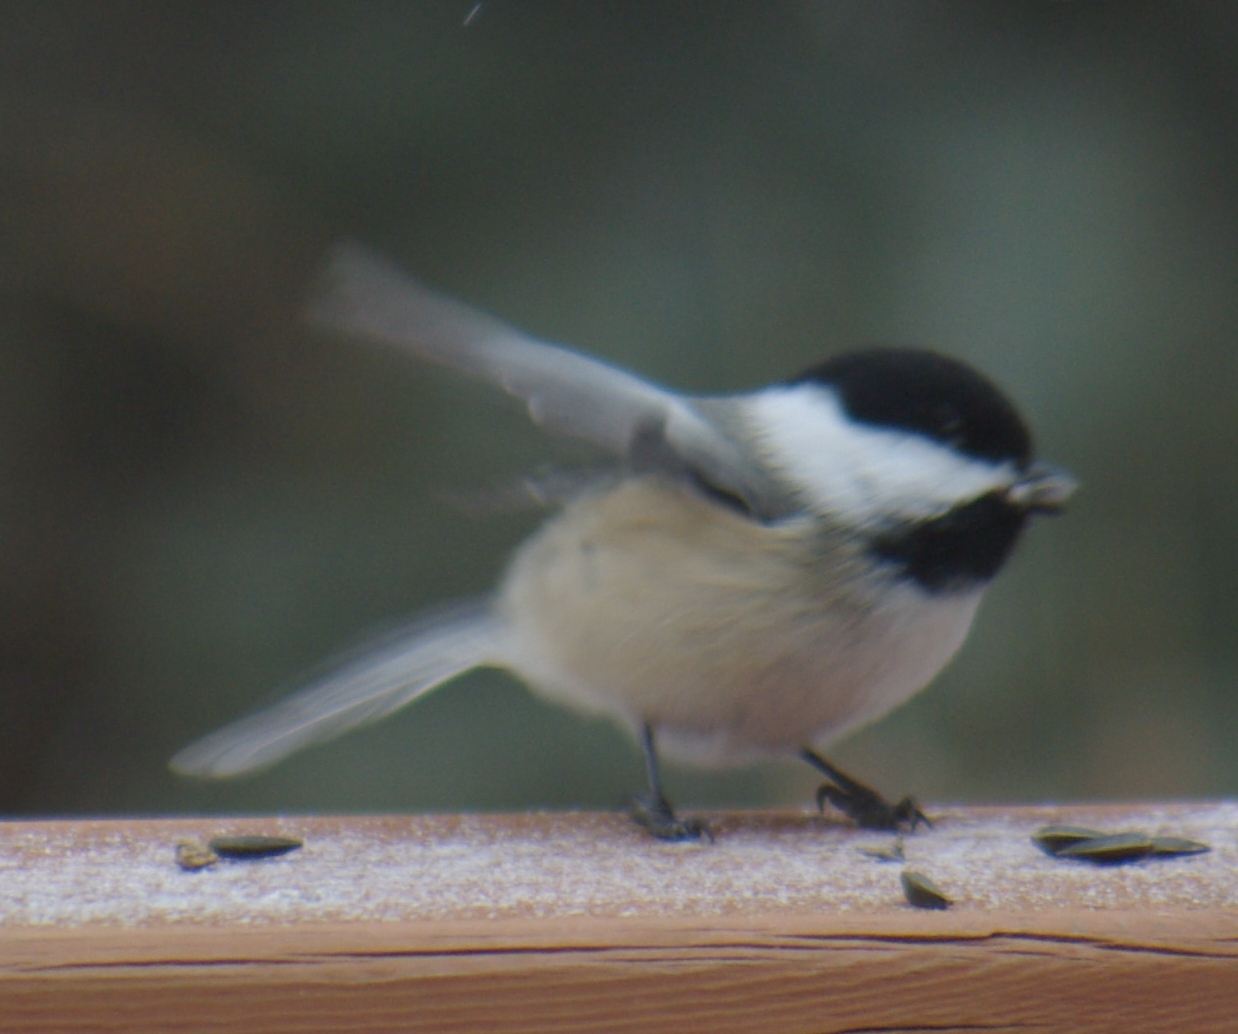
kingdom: Animalia
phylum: Chordata
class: Aves
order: Passeriformes
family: Paridae
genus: Poecile
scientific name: Poecile atricapillus
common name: Black-capped chickadee
